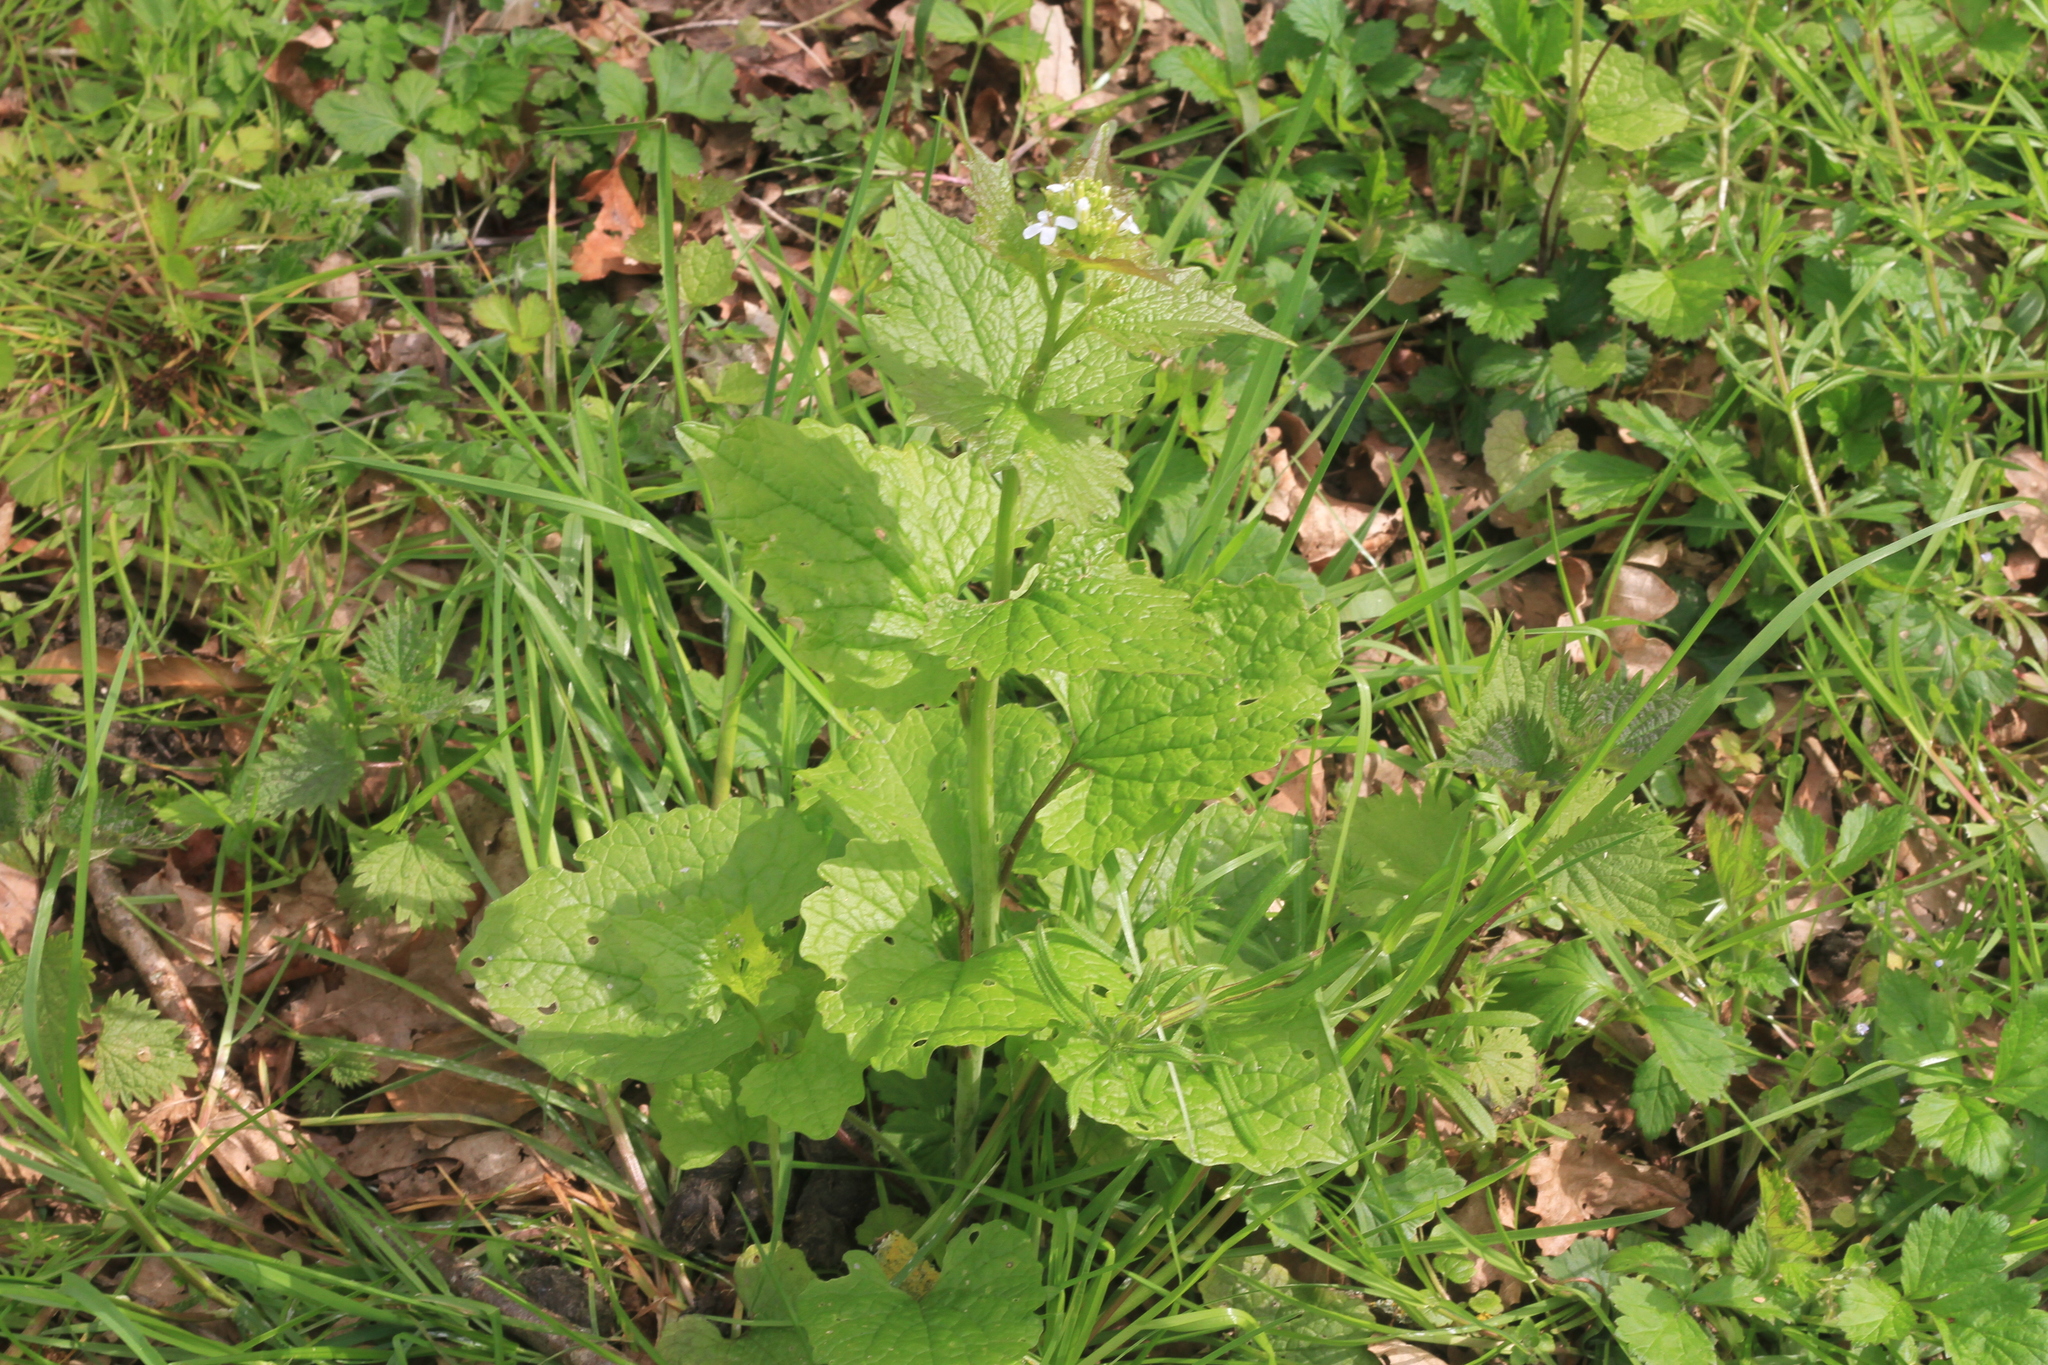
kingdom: Plantae
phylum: Tracheophyta
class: Magnoliopsida
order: Brassicales
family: Brassicaceae
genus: Alliaria
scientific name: Alliaria petiolata
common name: Garlic mustard
